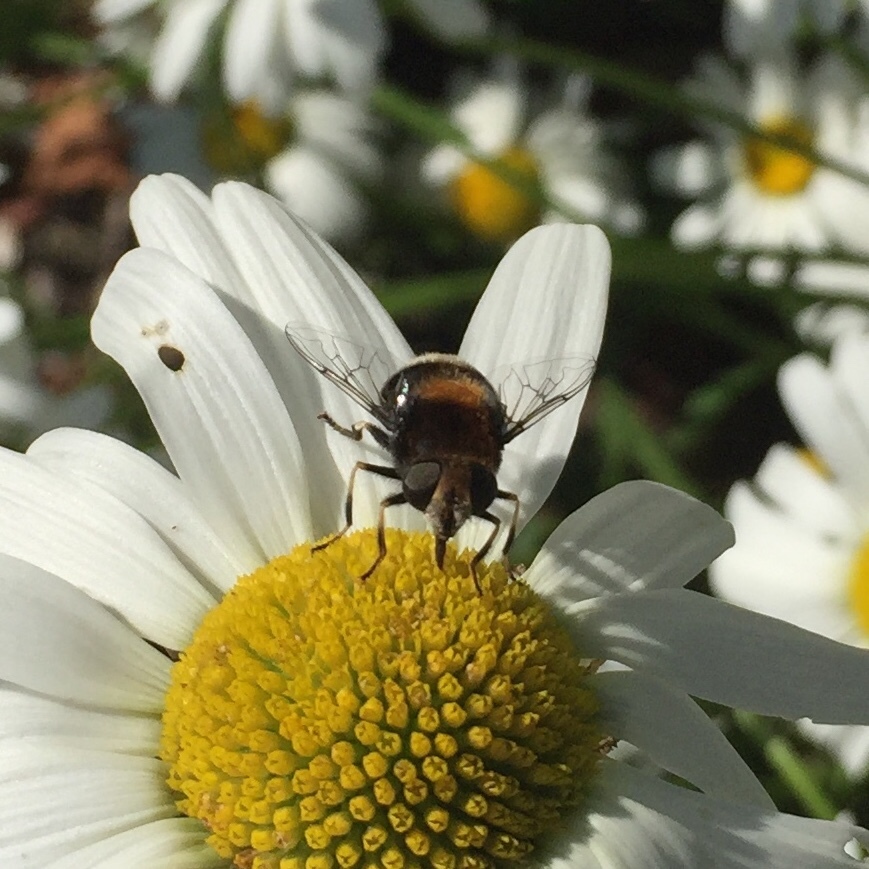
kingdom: Animalia
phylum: Arthropoda
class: Insecta
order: Diptera
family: Syrphidae
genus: Eristalis
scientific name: Eristalis intricaria
